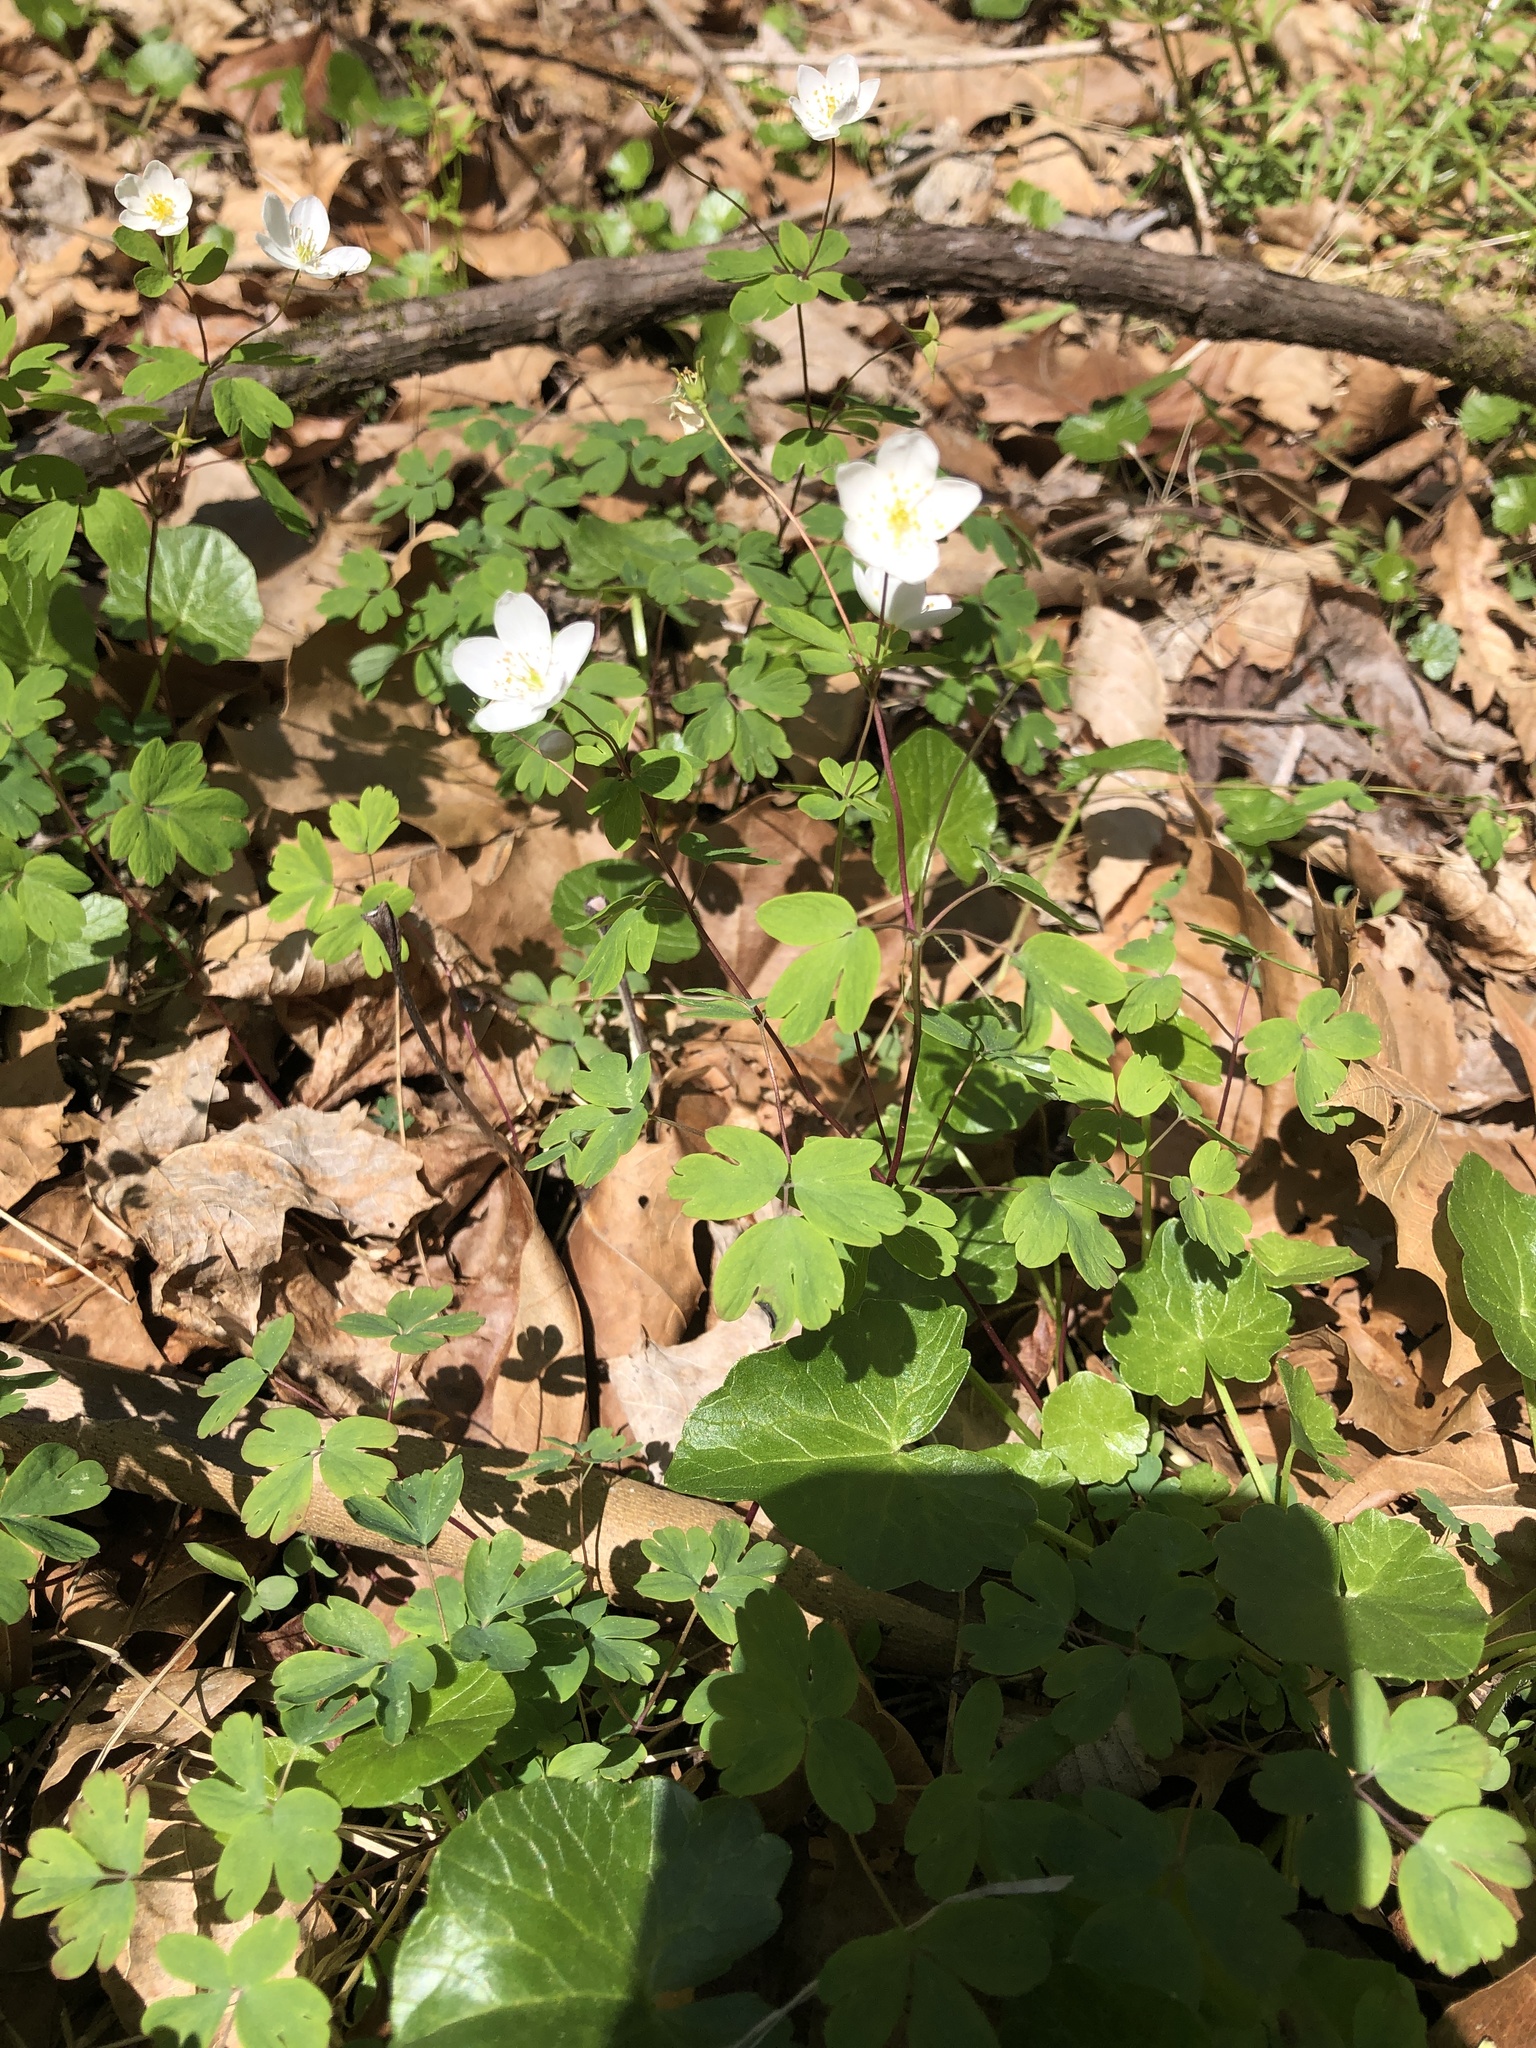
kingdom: Plantae
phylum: Tracheophyta
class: Magnoliopsida
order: Ranunculales
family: Ranunculaceae
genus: Enemion
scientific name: Enemion biternatum
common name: Eastern false rue-anemone
